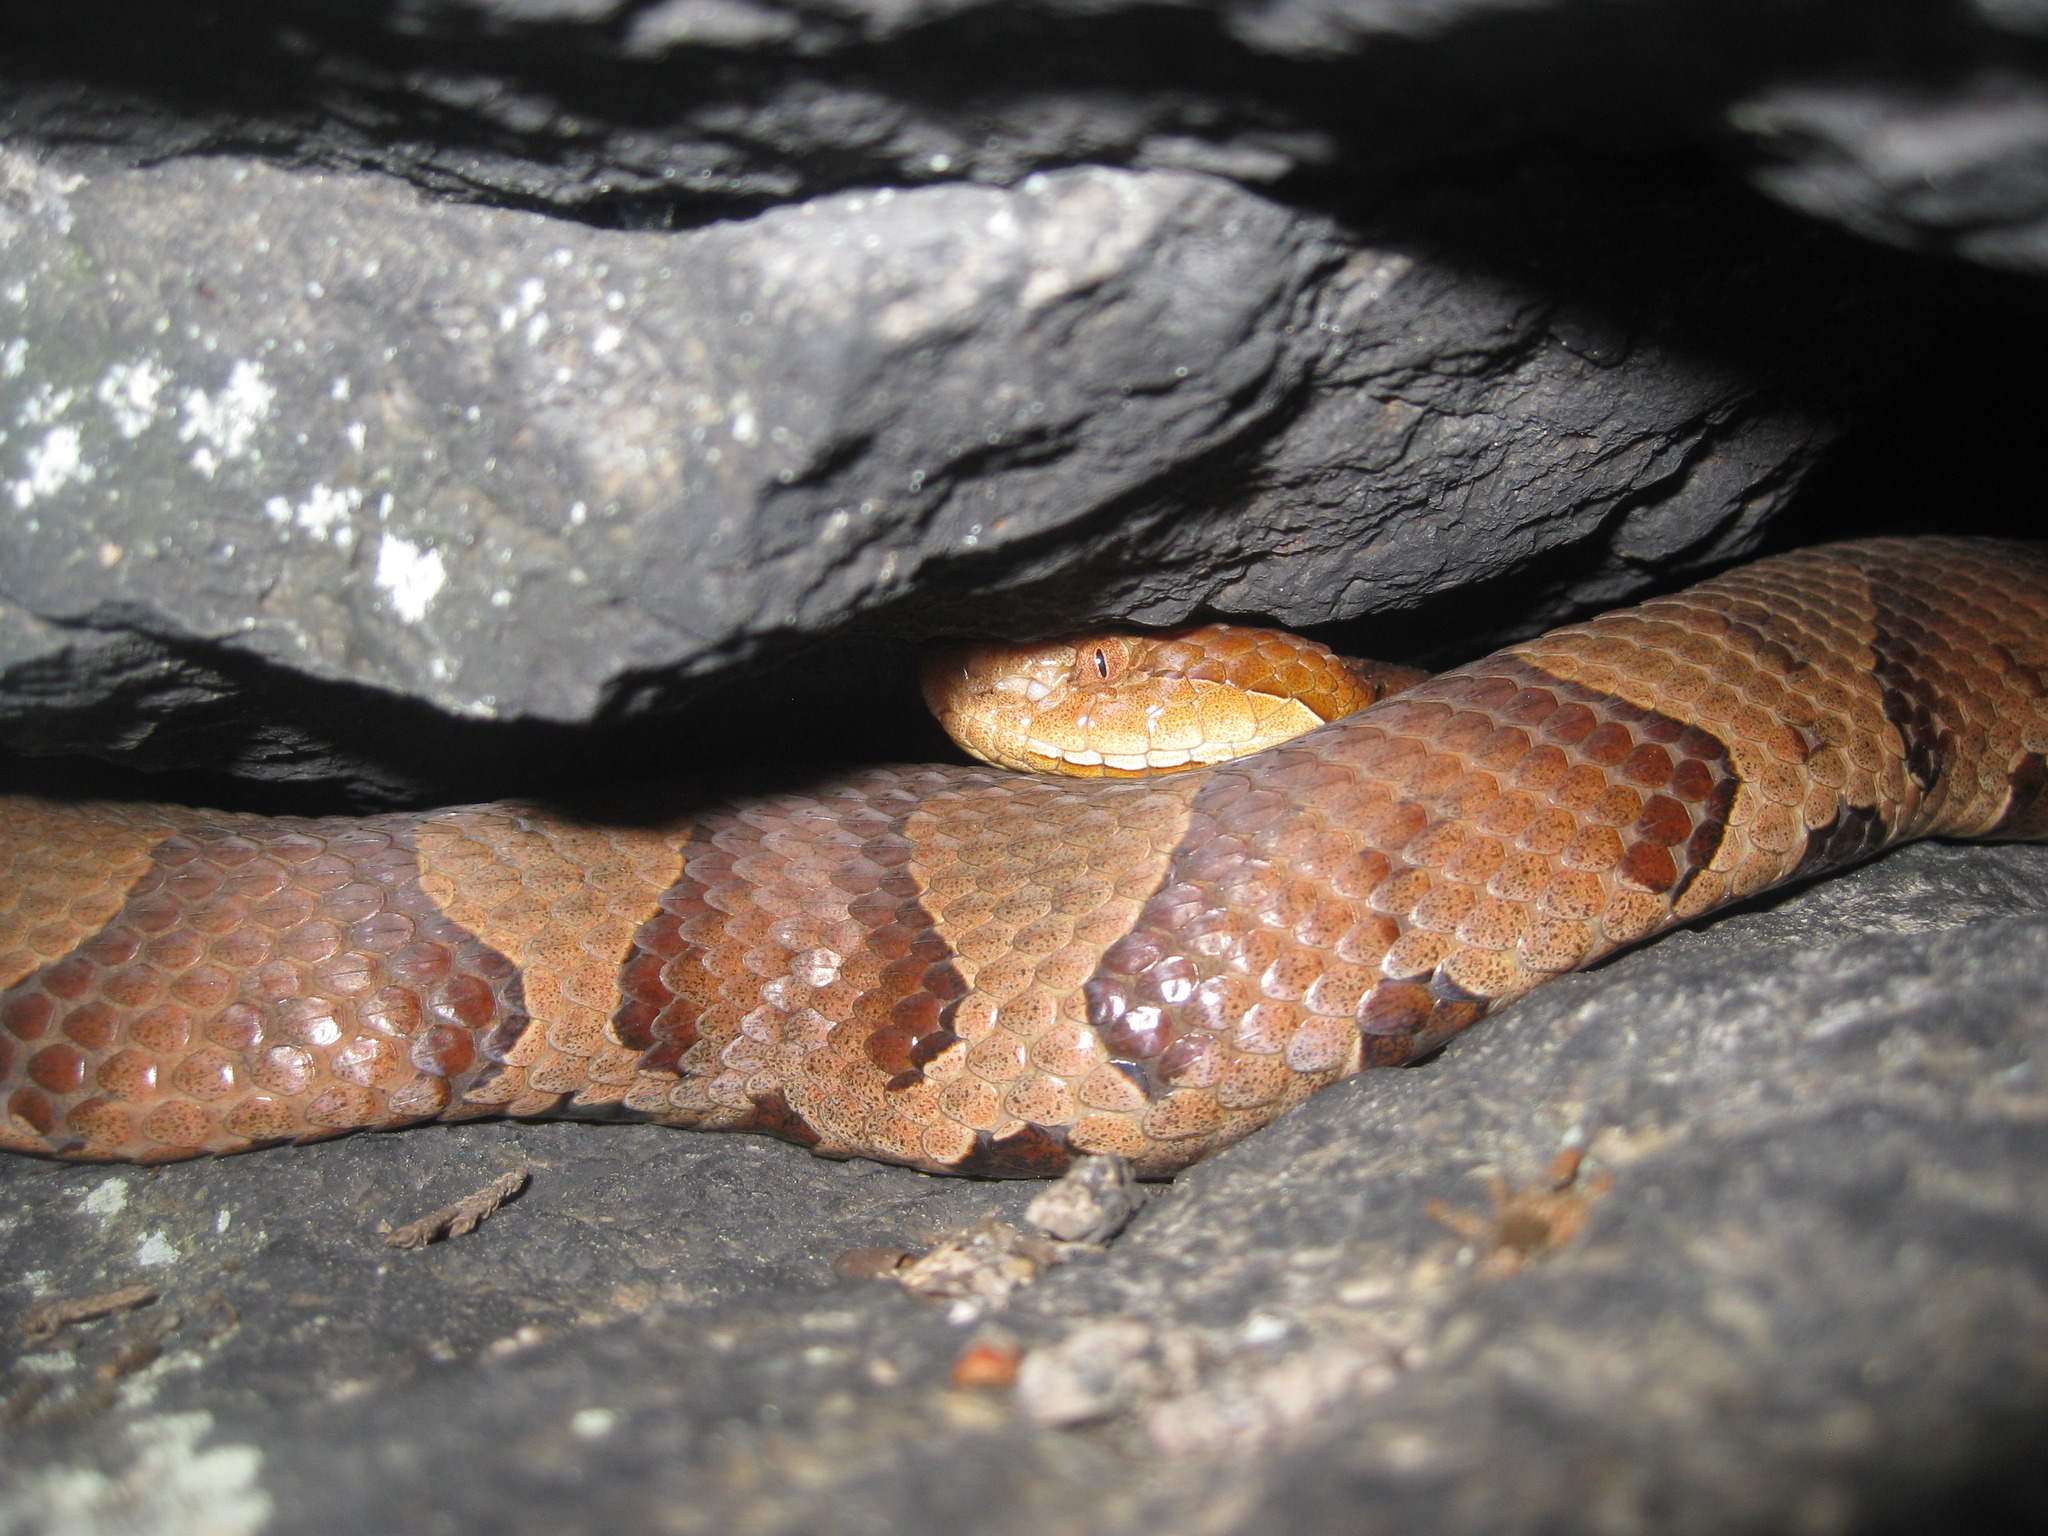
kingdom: Animalia
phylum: Chordata
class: Squamata
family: Viperidae
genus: Agkistrodon
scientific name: Agkistrodon contortrix
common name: Northern copperhead
